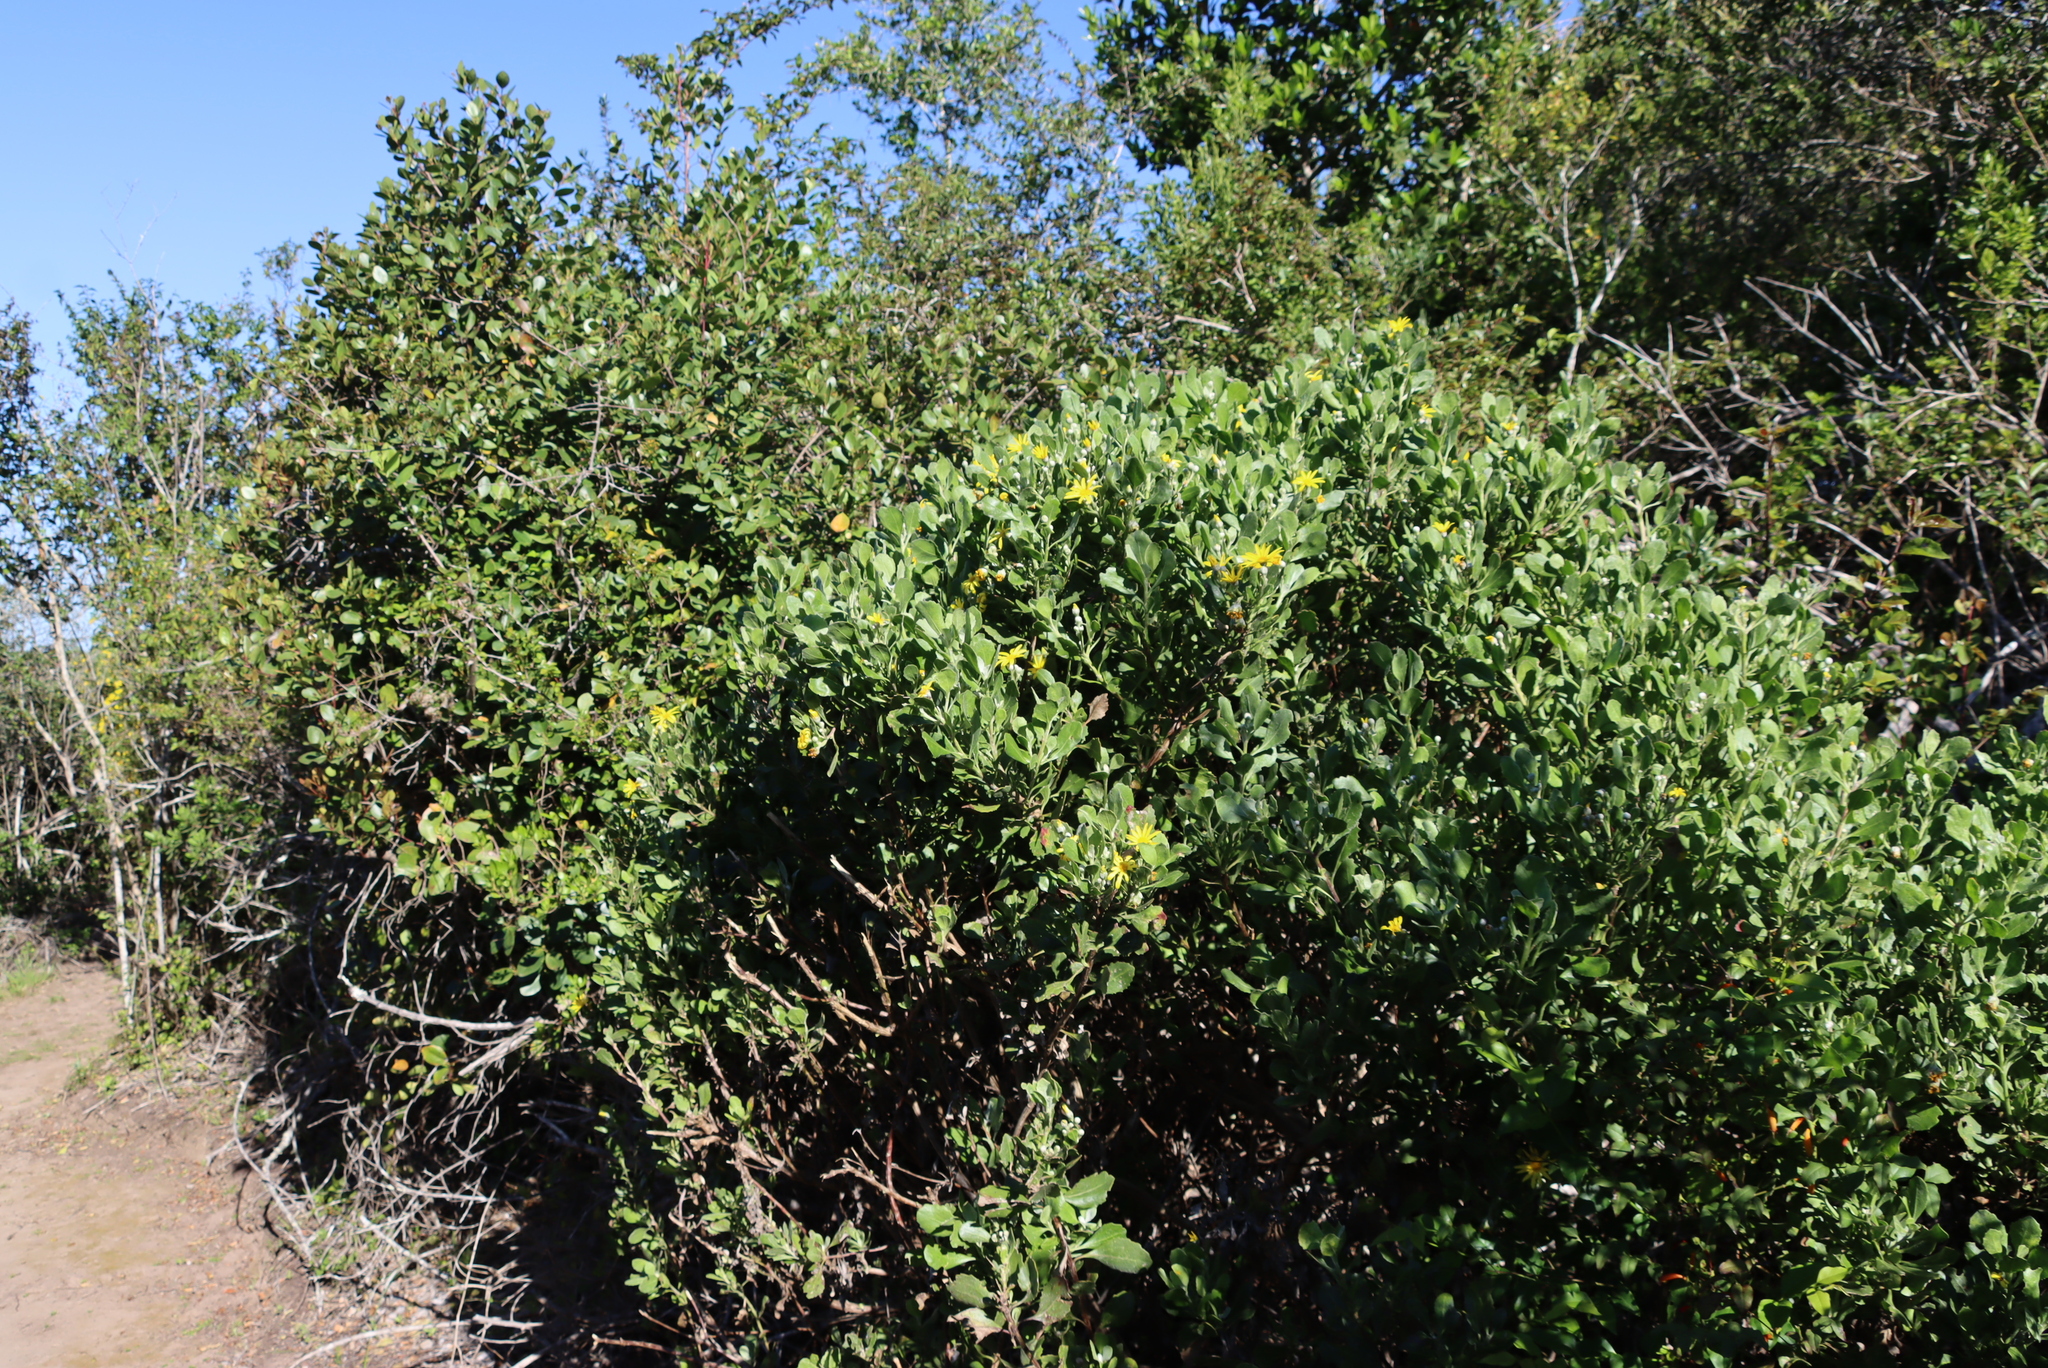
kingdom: Plantae
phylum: Tracheophyta
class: Magnoliopsida
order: Asterales
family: Asteraceae
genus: Osteospermum
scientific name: Osteospermum moniliferum
